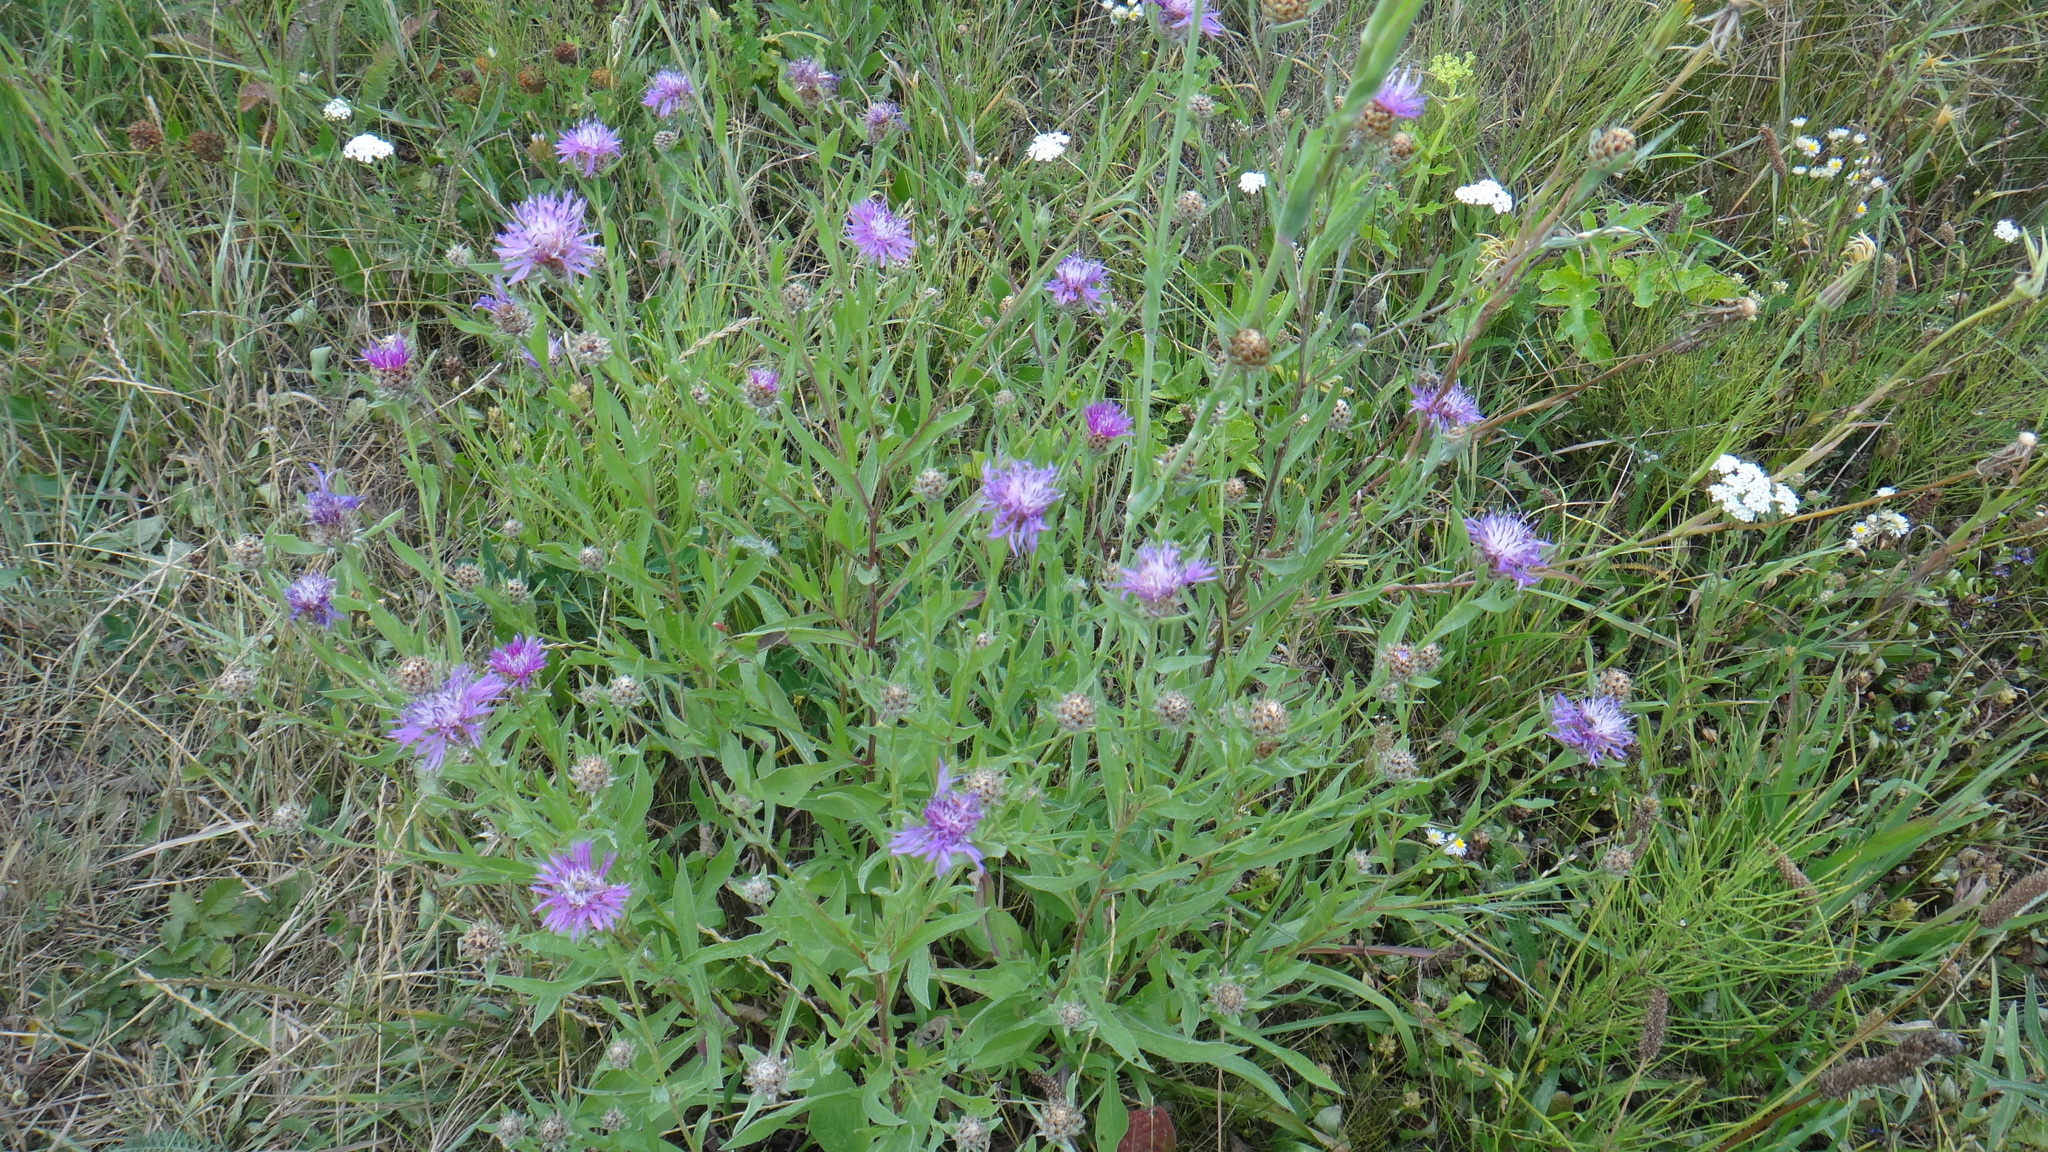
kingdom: Plantae
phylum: Tracheophyta
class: Magnoliopsida
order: Asterales
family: Asteraceae
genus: Centaurea
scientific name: Centaurea jacea
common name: Brown knapweed
